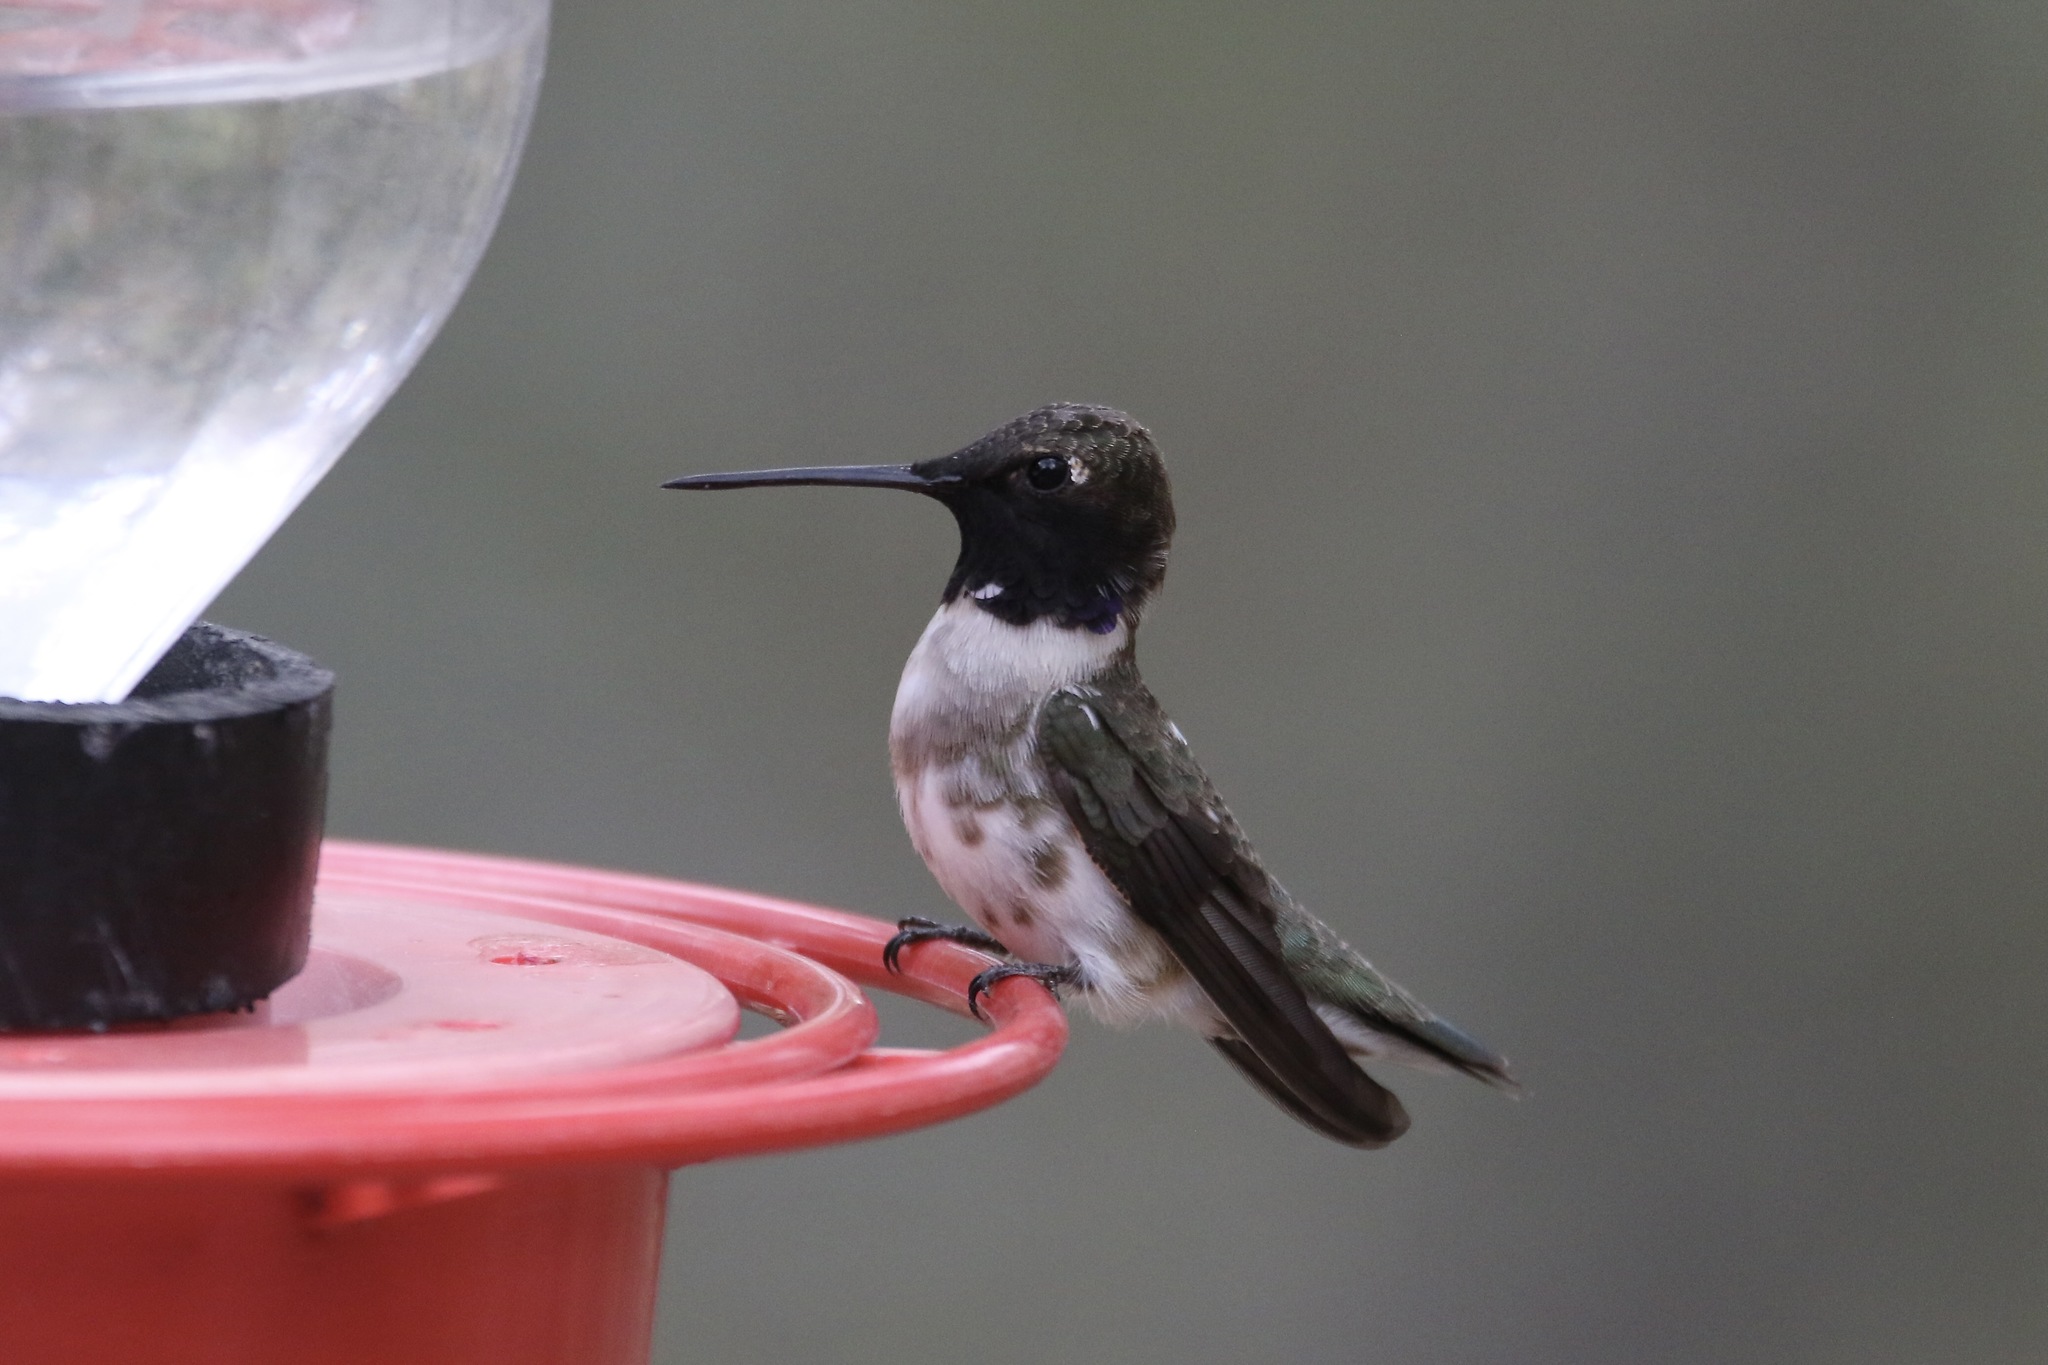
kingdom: Animalia
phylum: Chordata
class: Aves
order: Apodiformes
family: Trochilidae
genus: Archilochus
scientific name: Archilochus alexandri
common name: Black-chinned hummingbird
